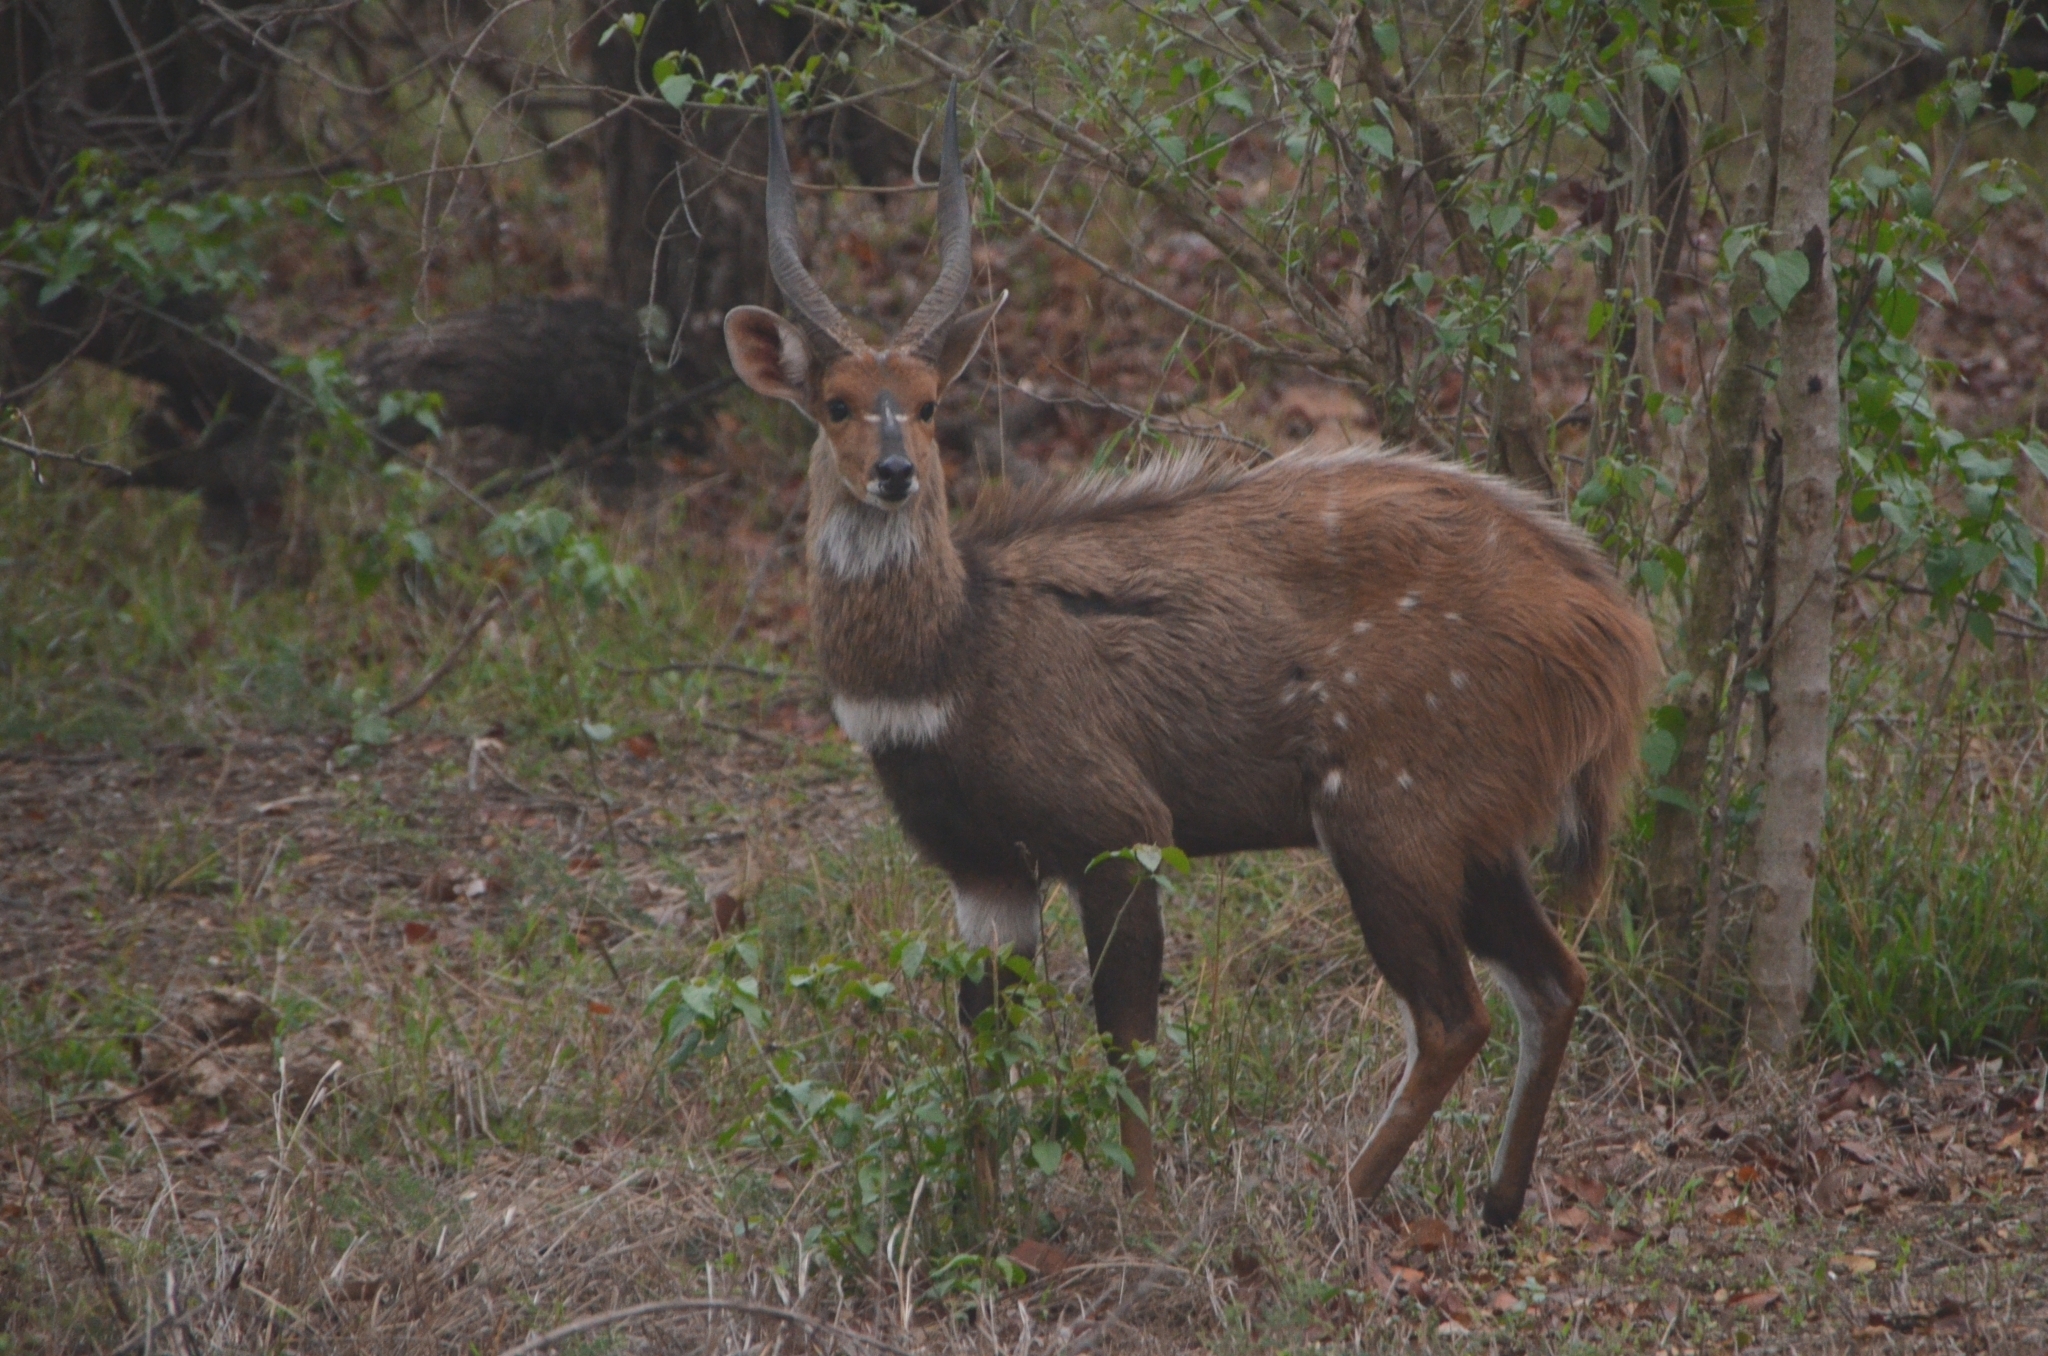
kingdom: Animalia
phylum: Chordata
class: Mammalia
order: Artiodactyla
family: Bovidae
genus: Tragelaphus
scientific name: Tragelaphus scriptus
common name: Bushbuck
